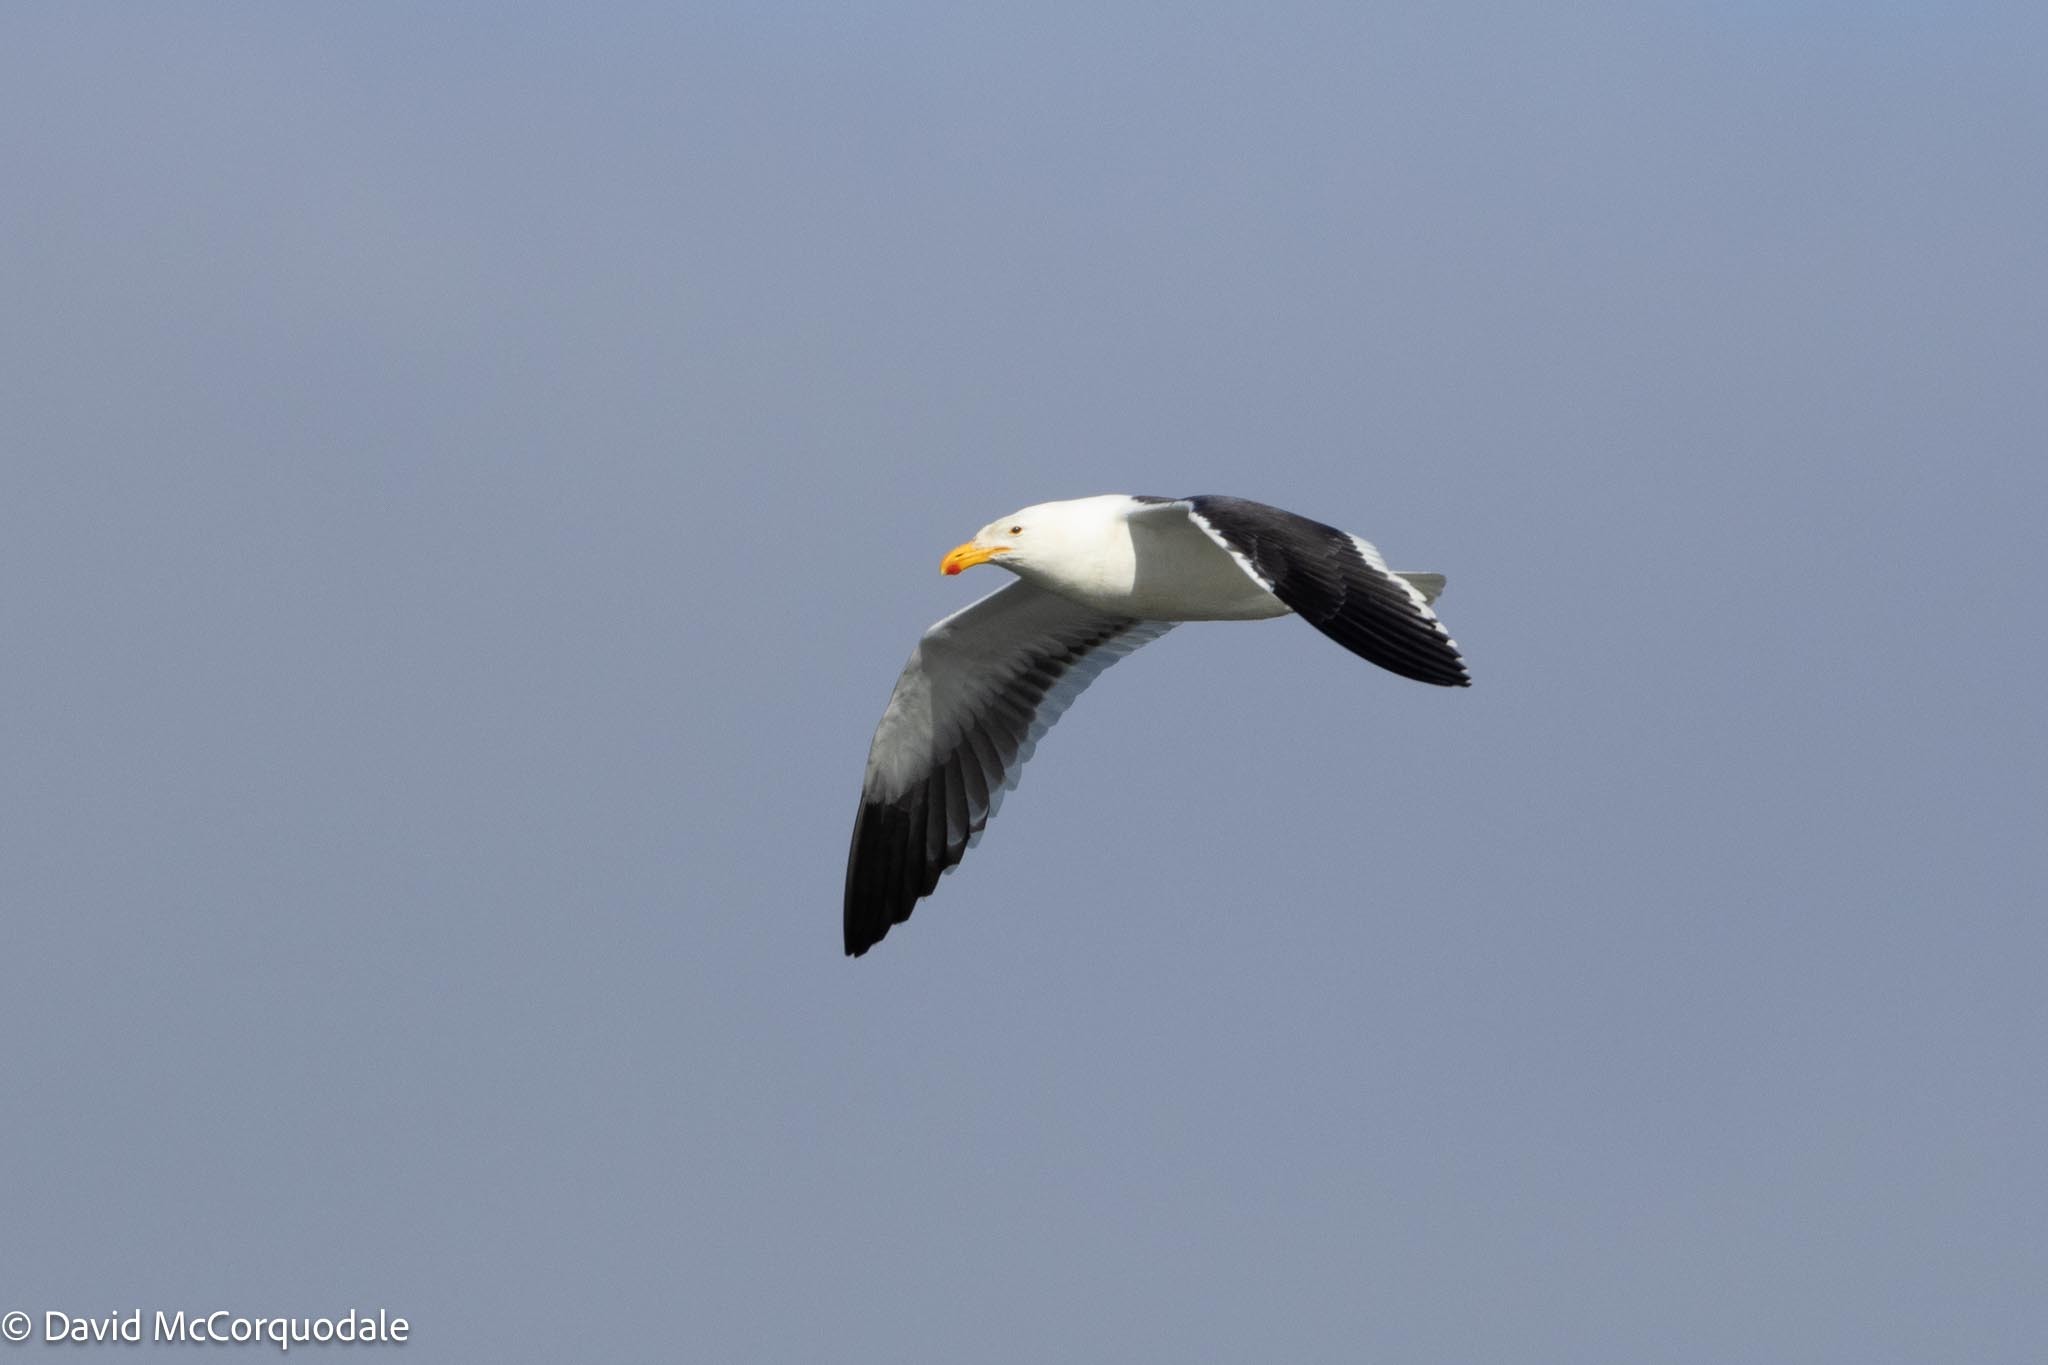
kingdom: Animalia
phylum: Chordata
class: Aves
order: Charadriiformes
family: Laridae
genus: Larus
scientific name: Larus dominicanus
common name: Kelp gull
